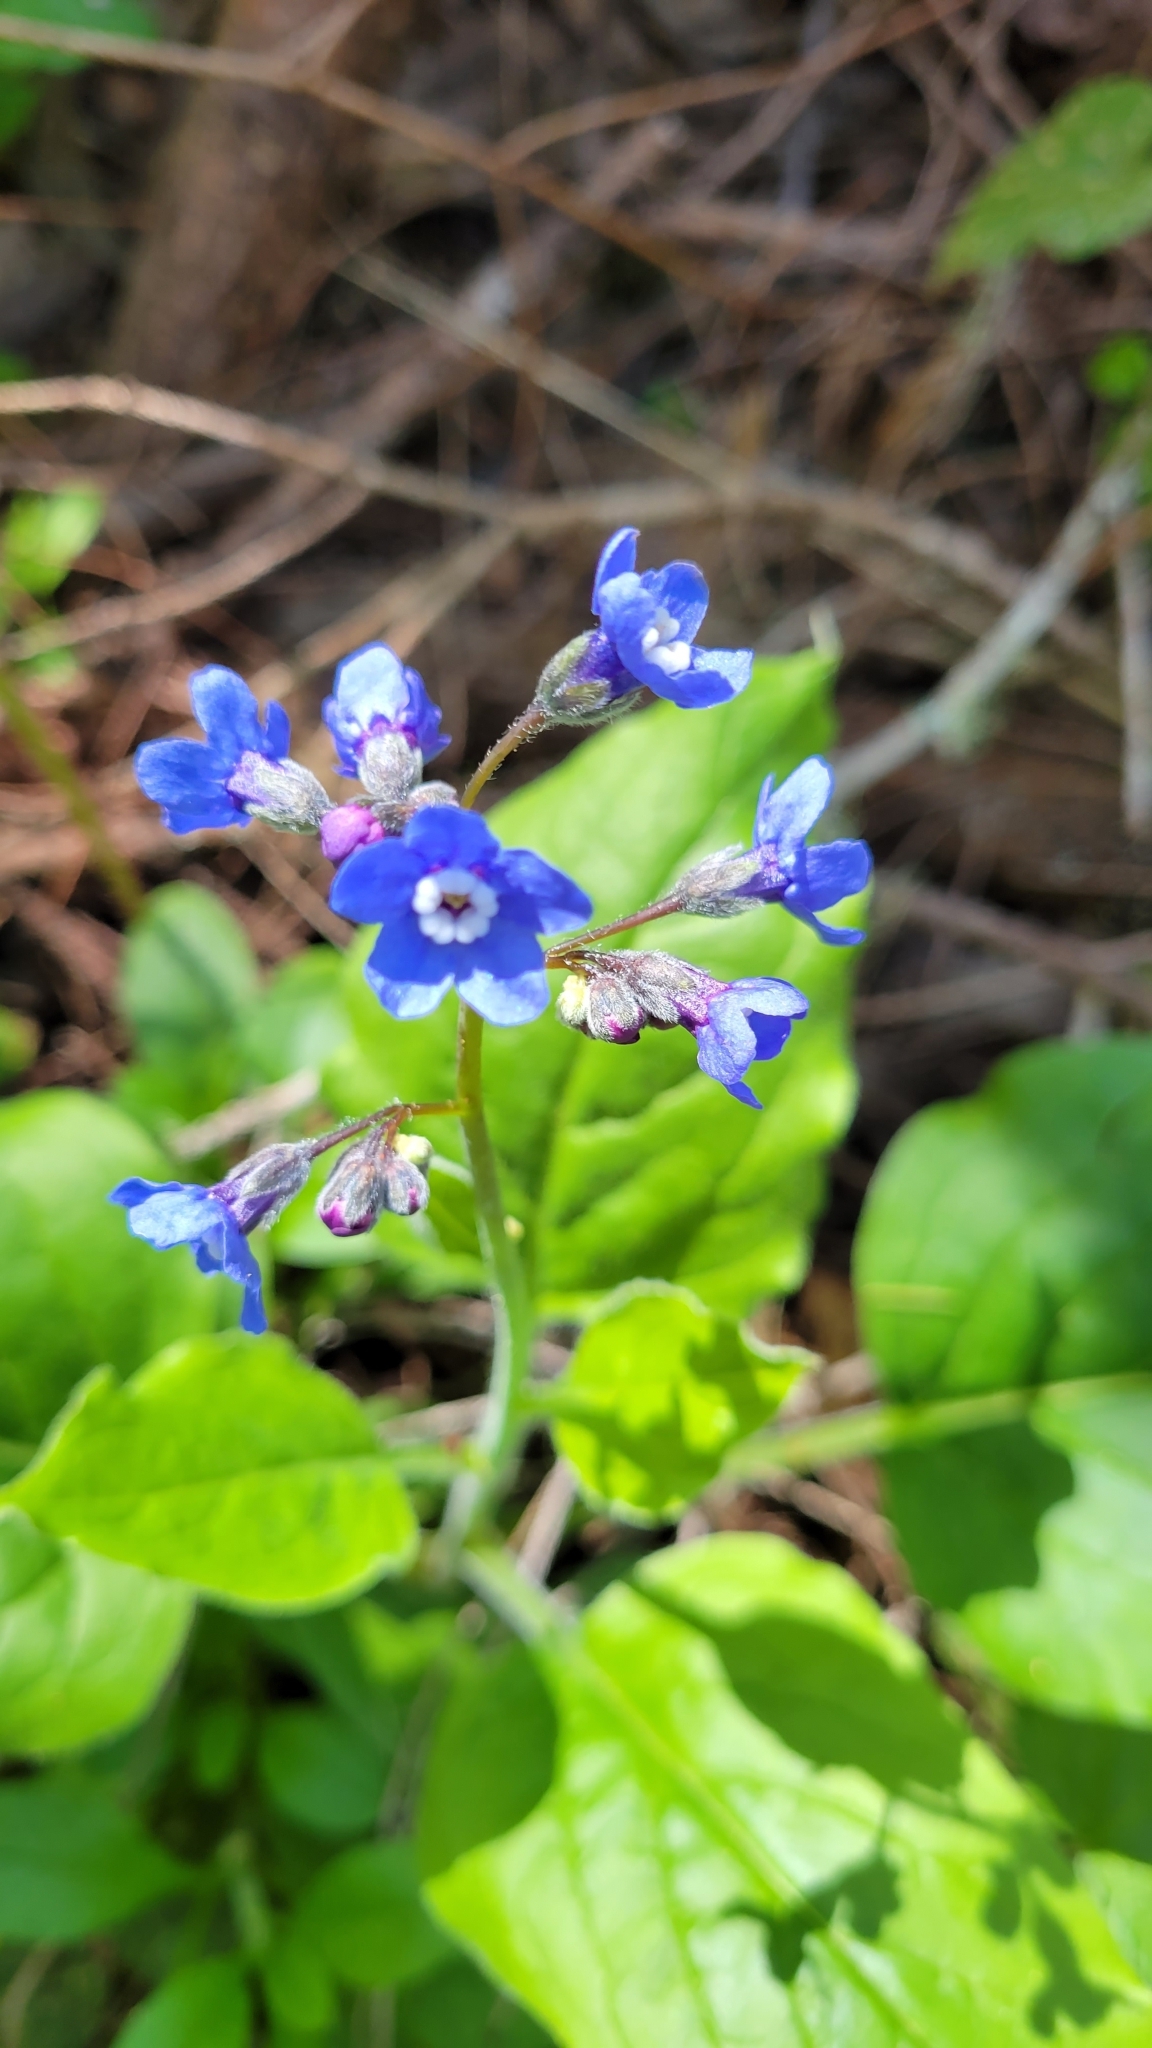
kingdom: Plantae
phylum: Tracheophyta
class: Magnoliopsida
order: Boraginales
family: Boraginaceae
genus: Adelinia
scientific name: Adelinia grande
